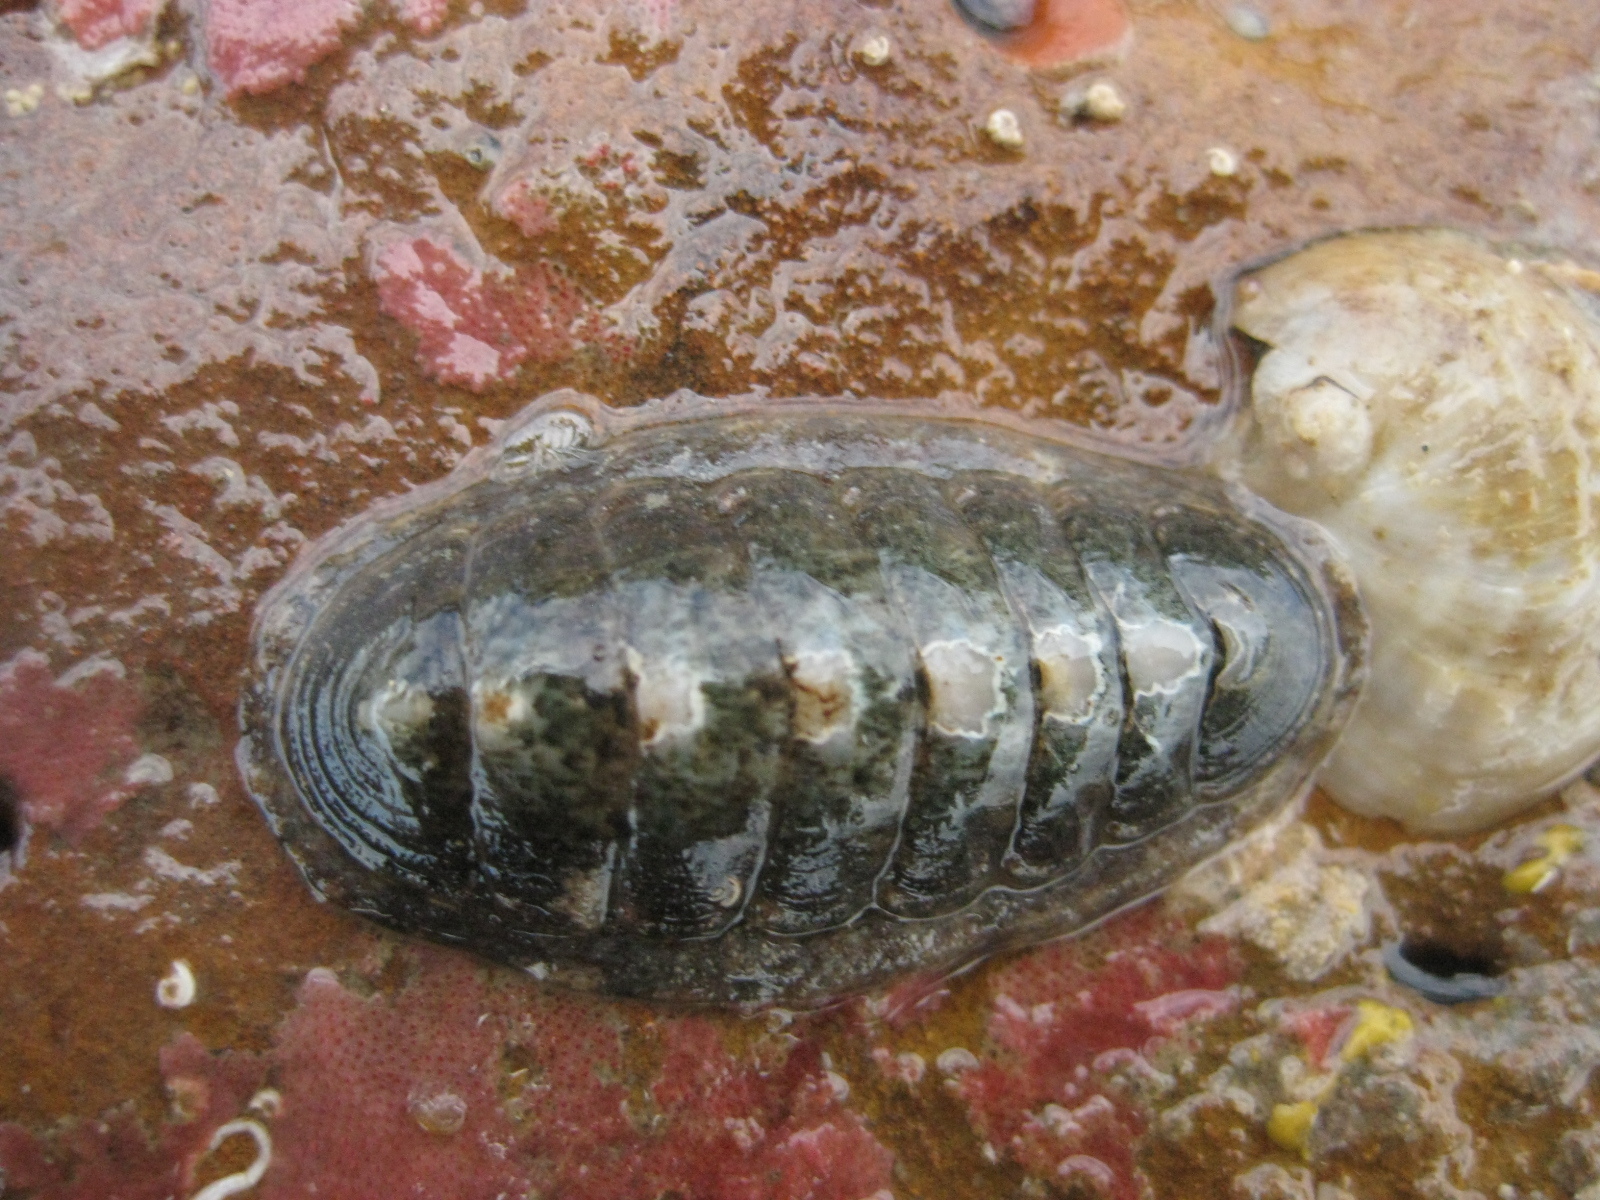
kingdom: Animalia
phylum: Mollusca
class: Polyplacophora
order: Chitonida
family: Ischnochitonidae
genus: Ischnochiton
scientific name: Ischnochiton maorianus
